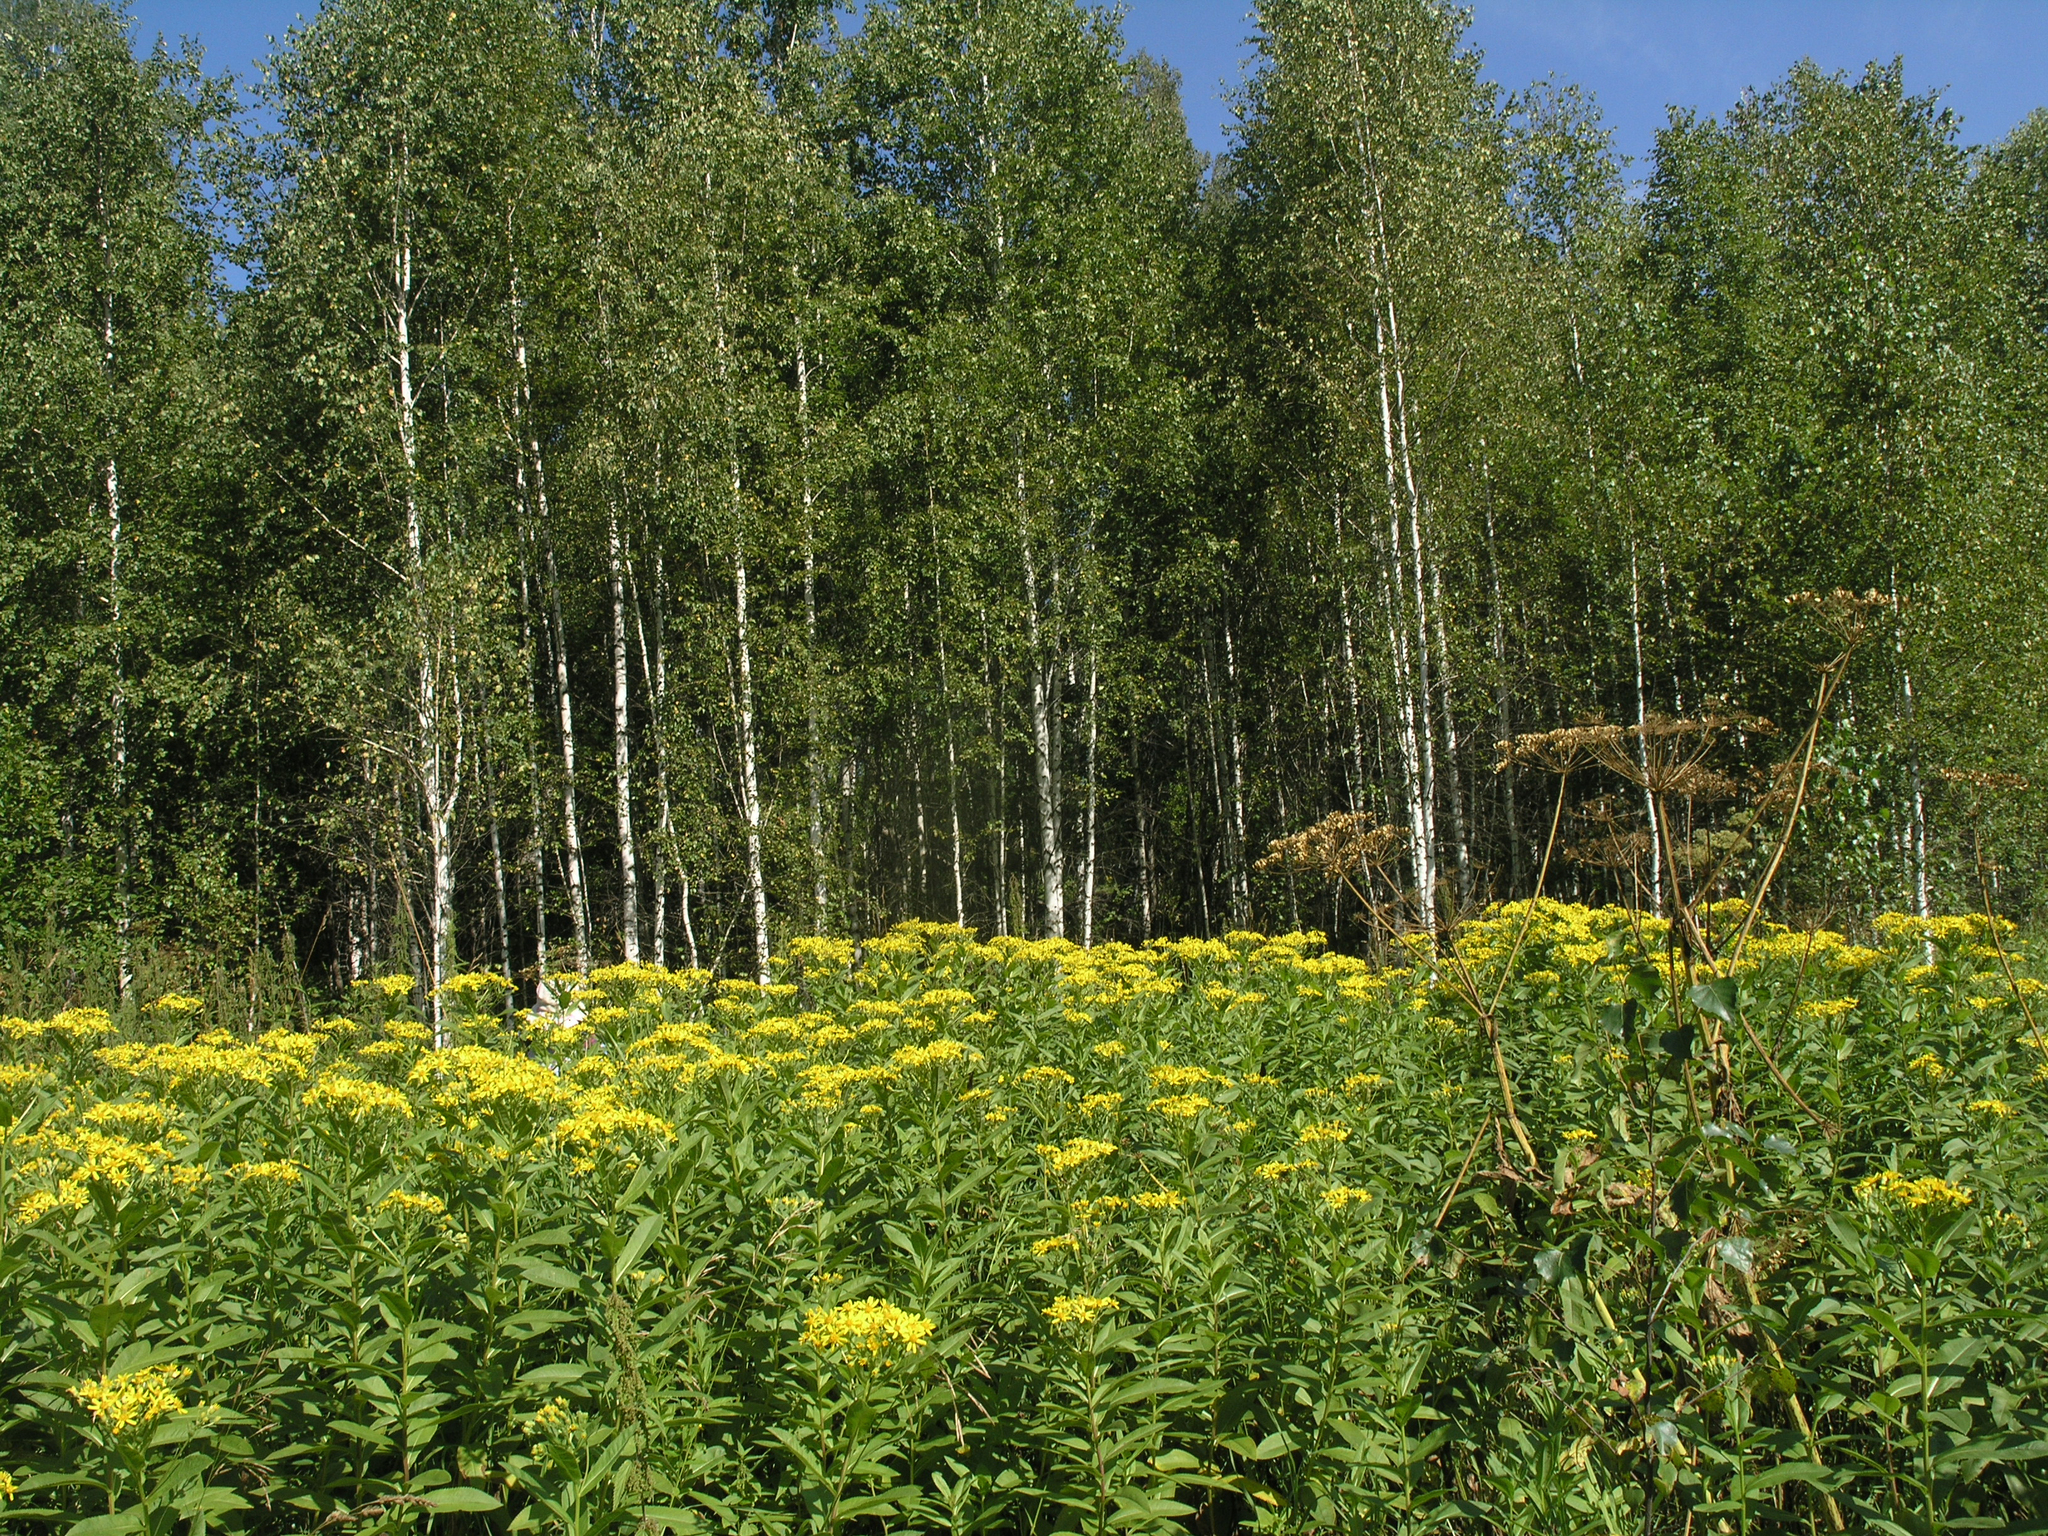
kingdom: Plantae
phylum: Tracheophyta
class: Magnoliopsida
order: Asterales
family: Asteraceae
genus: Senecio
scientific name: Senecio sarracenicus
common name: Broad-leaved ragwort
